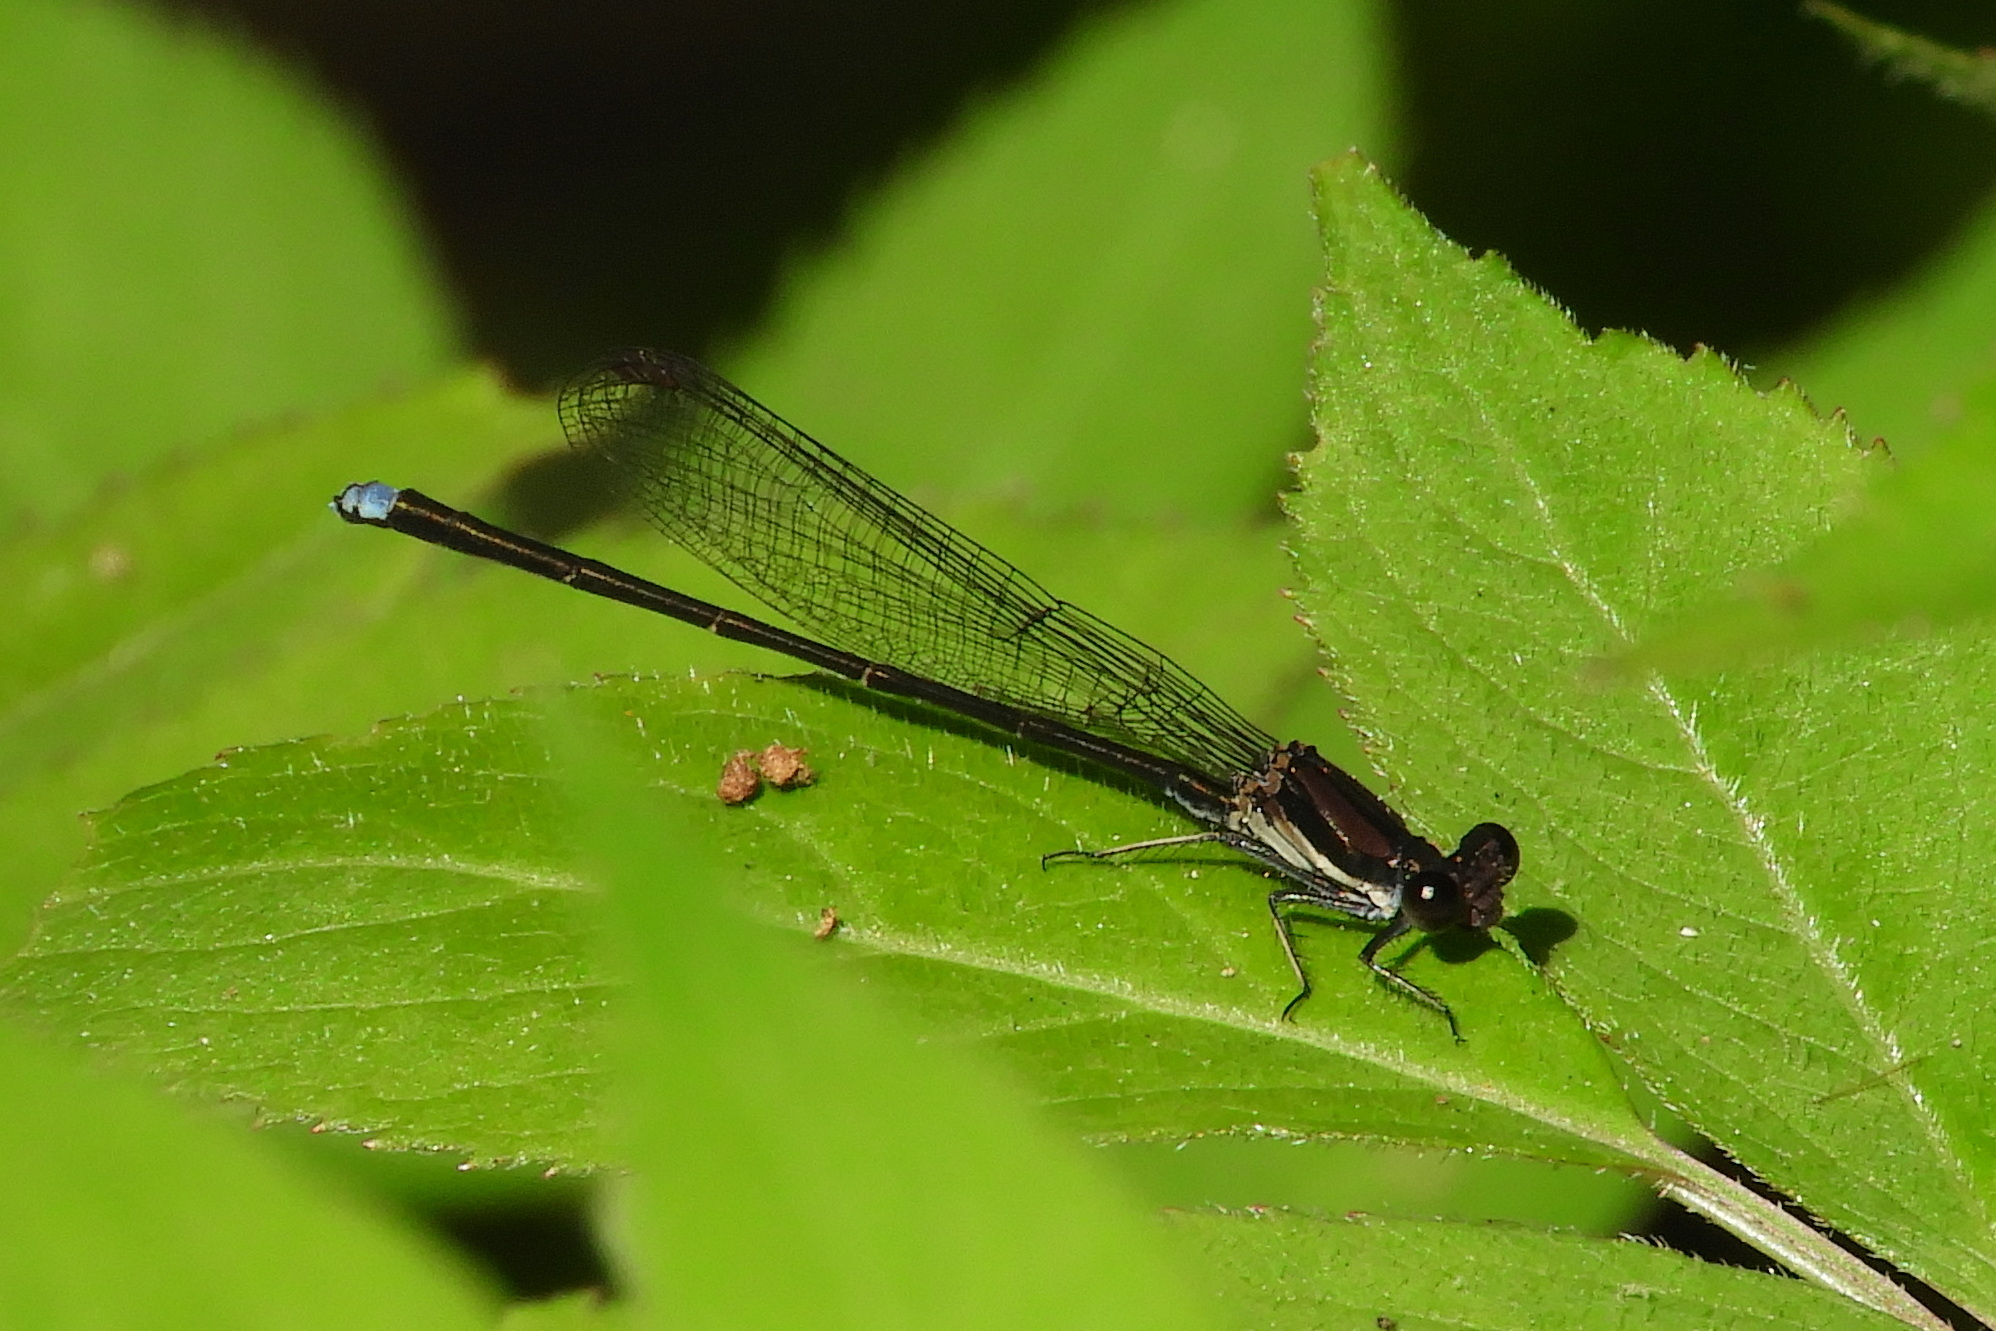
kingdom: Animalia
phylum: Arthropoda
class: Insecta
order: Odonata
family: Coenagrionidae
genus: Argia
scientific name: Argia tibialis
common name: Blue-tipped dancer
